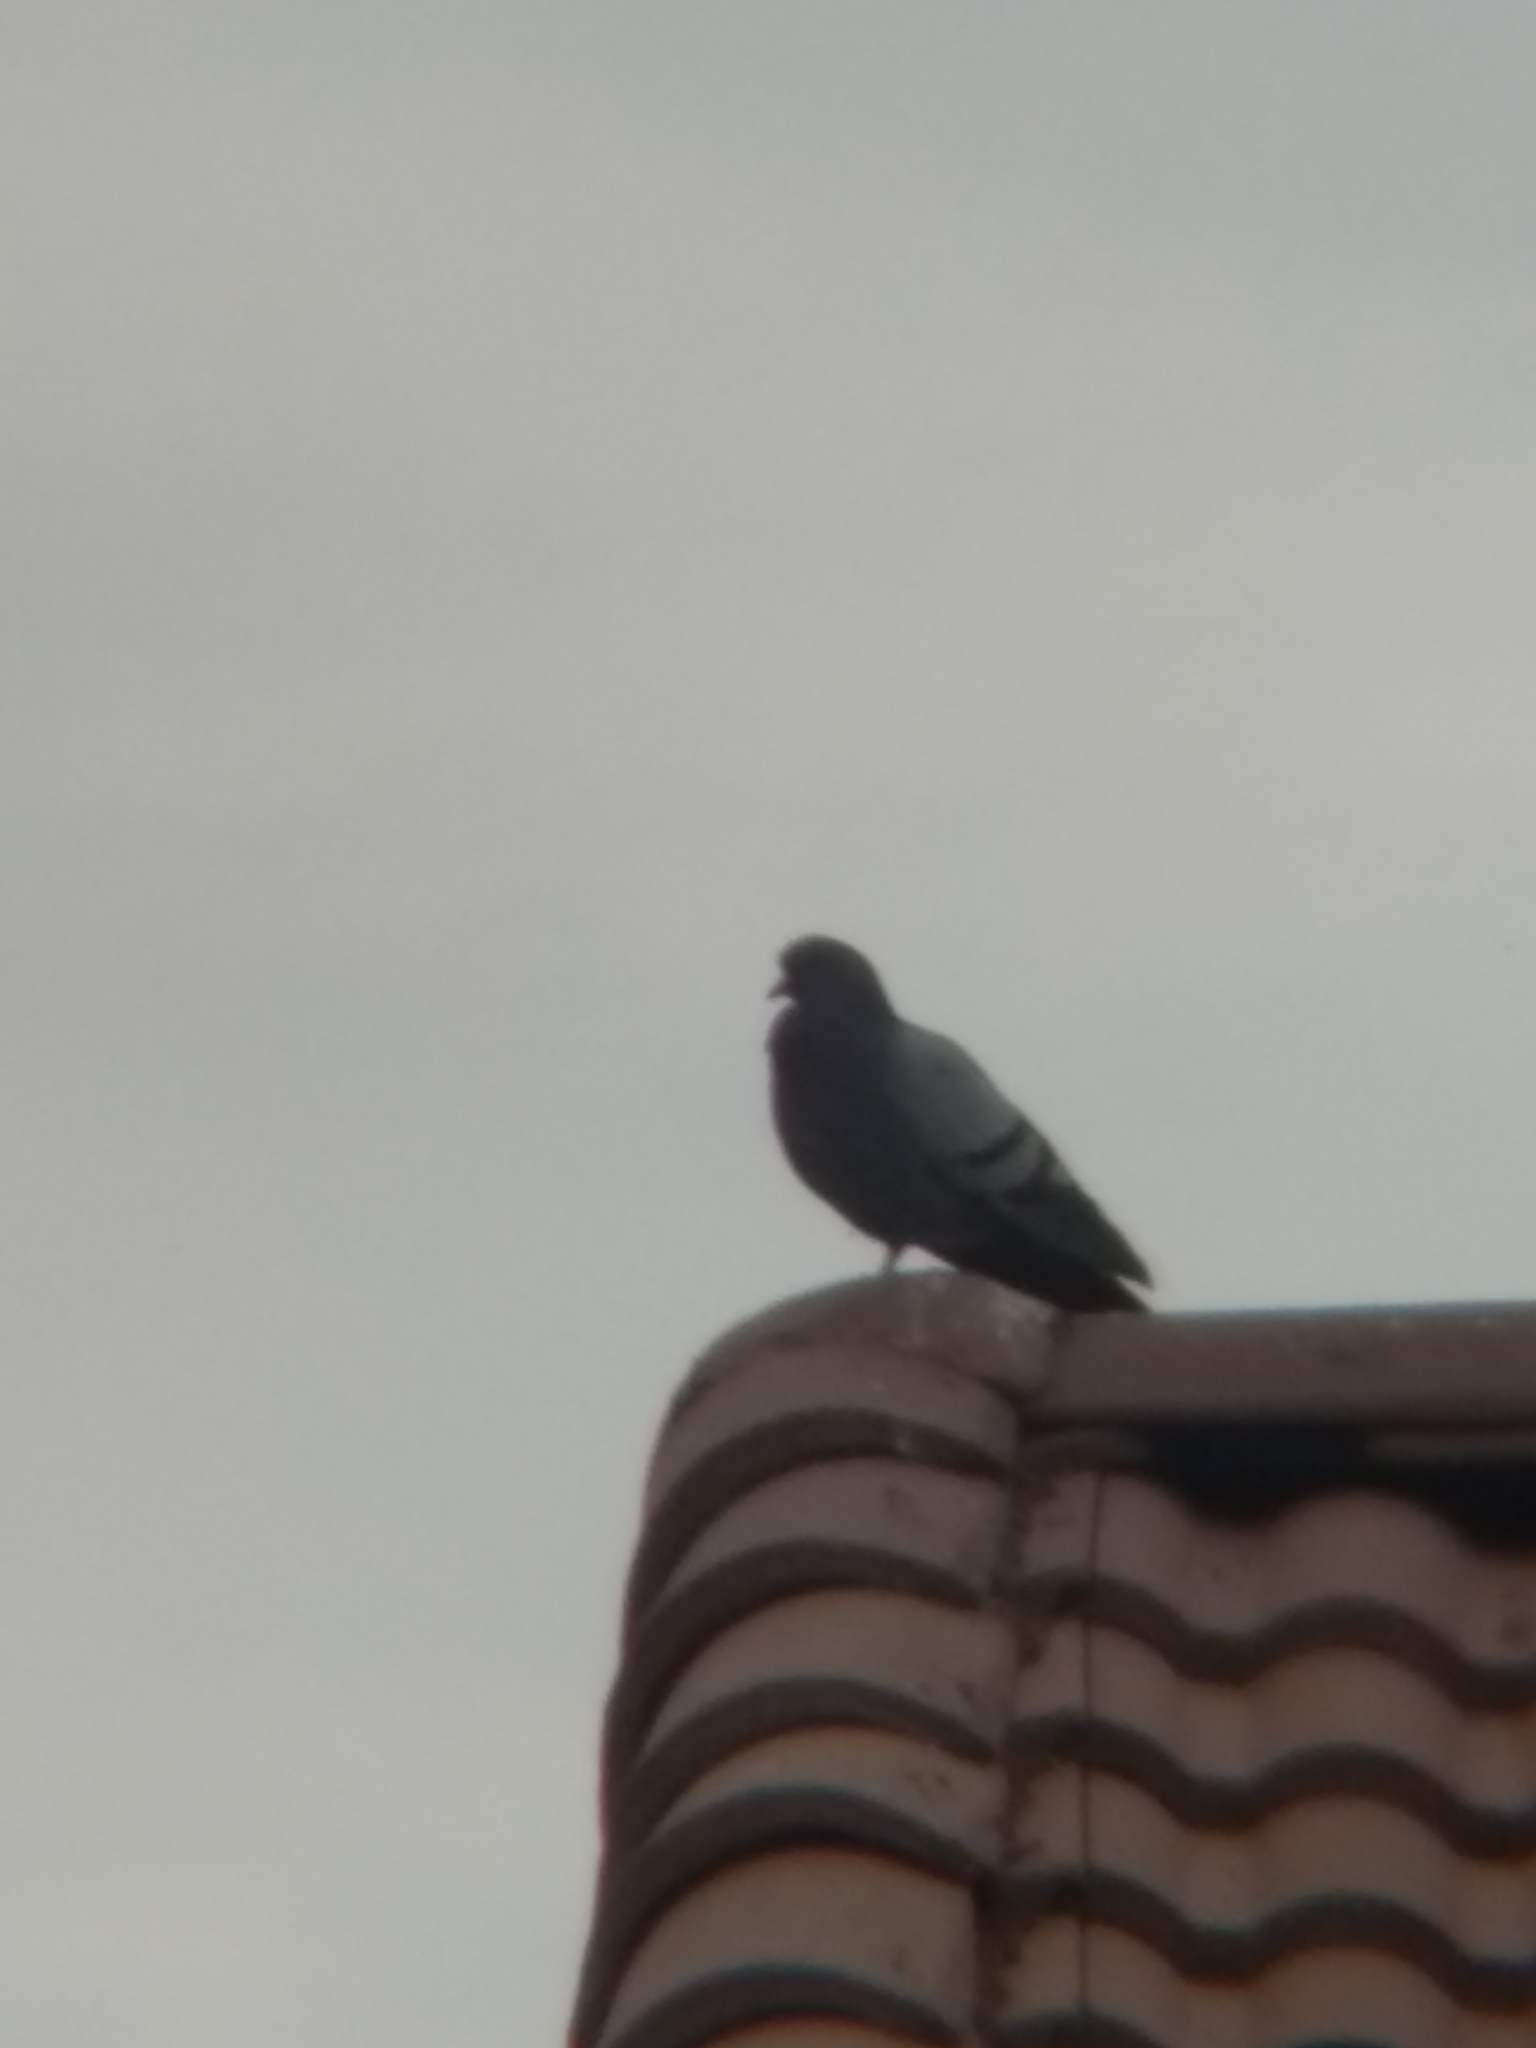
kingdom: Animalia
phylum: Chordata
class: Aves
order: Columbiformes
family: Columbidae
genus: Columba
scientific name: Columba livia
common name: Rock pigeon
